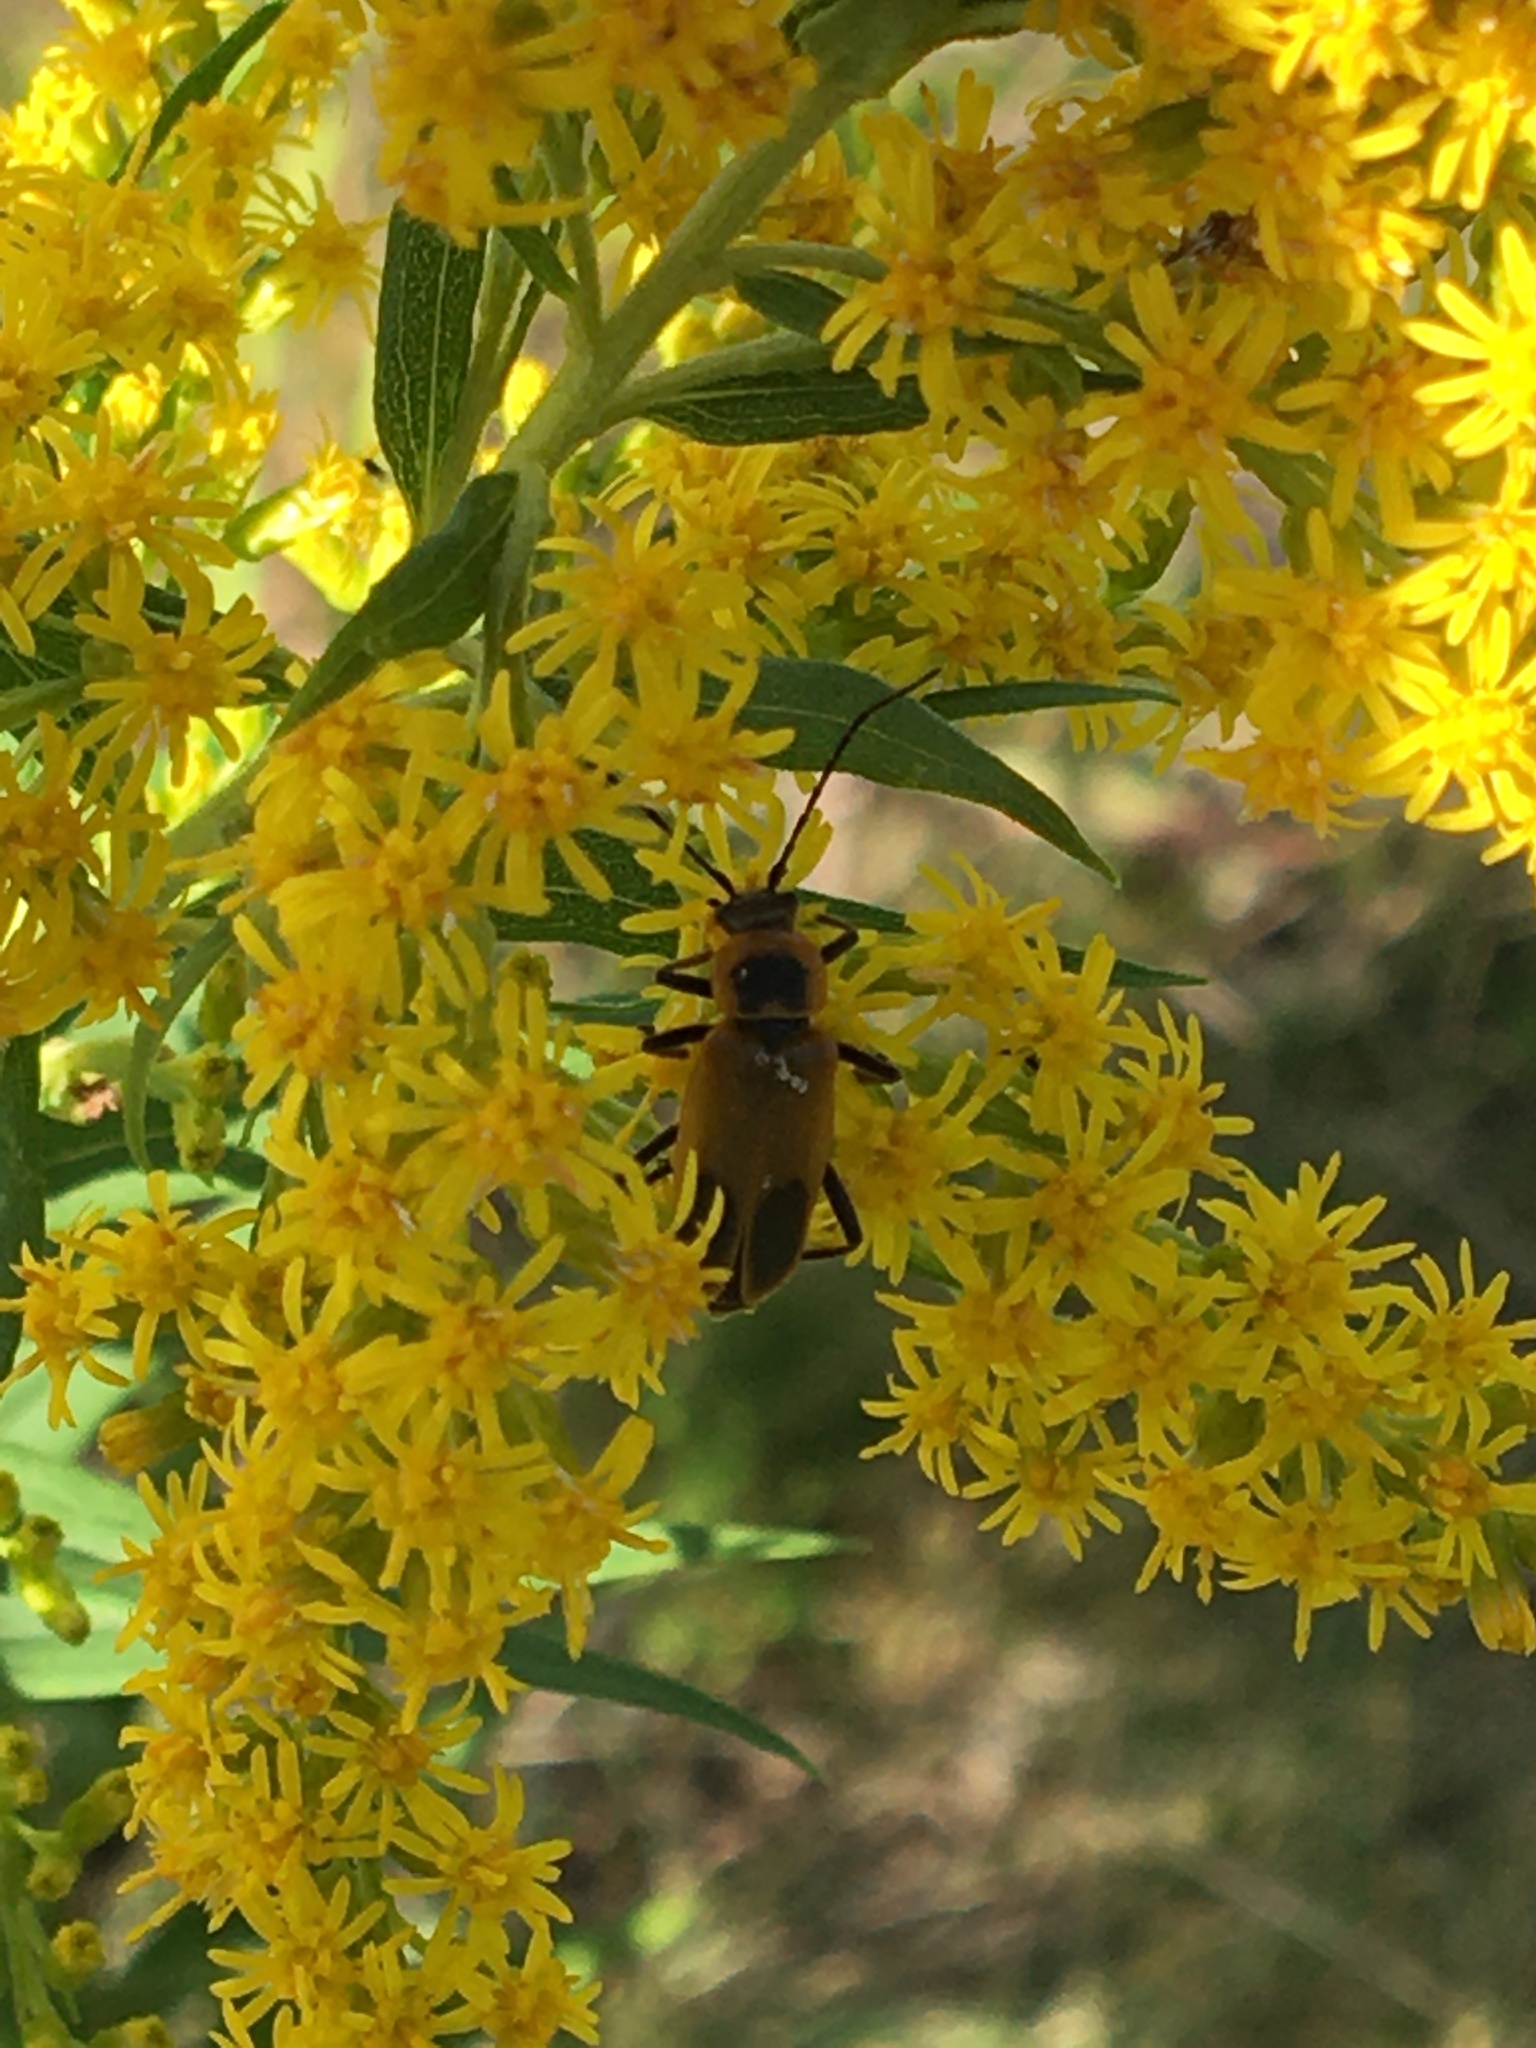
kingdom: Animalia
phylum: Arthropoda
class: Insecta
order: Coleoptera
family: Cantharidae
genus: Chauliognathus
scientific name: Chauliognathus pensylvanicus
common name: Goldenrod soldier beetle
